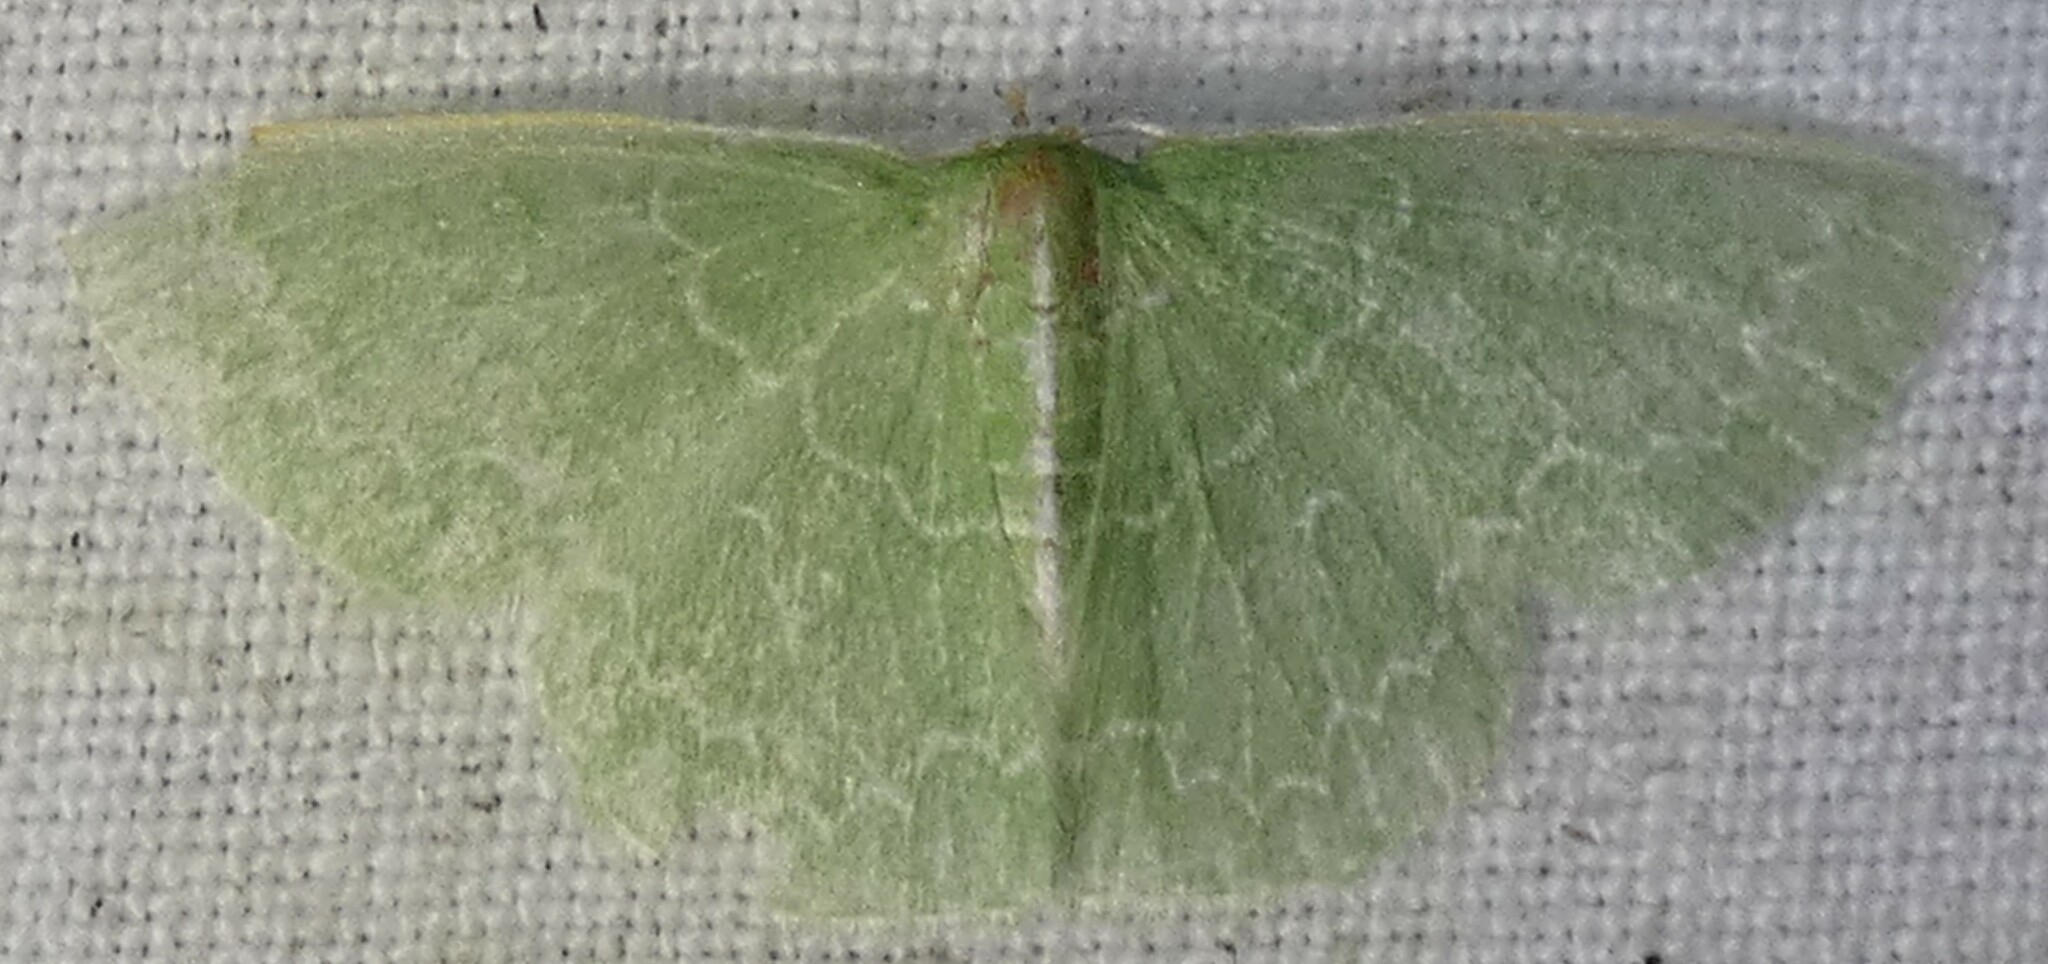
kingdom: Animalia
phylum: Arthropoda
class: Insecta
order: Lepidoptera
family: Geometridae
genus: Synchlora
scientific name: Synchlora frondaria
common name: Southern emerald
